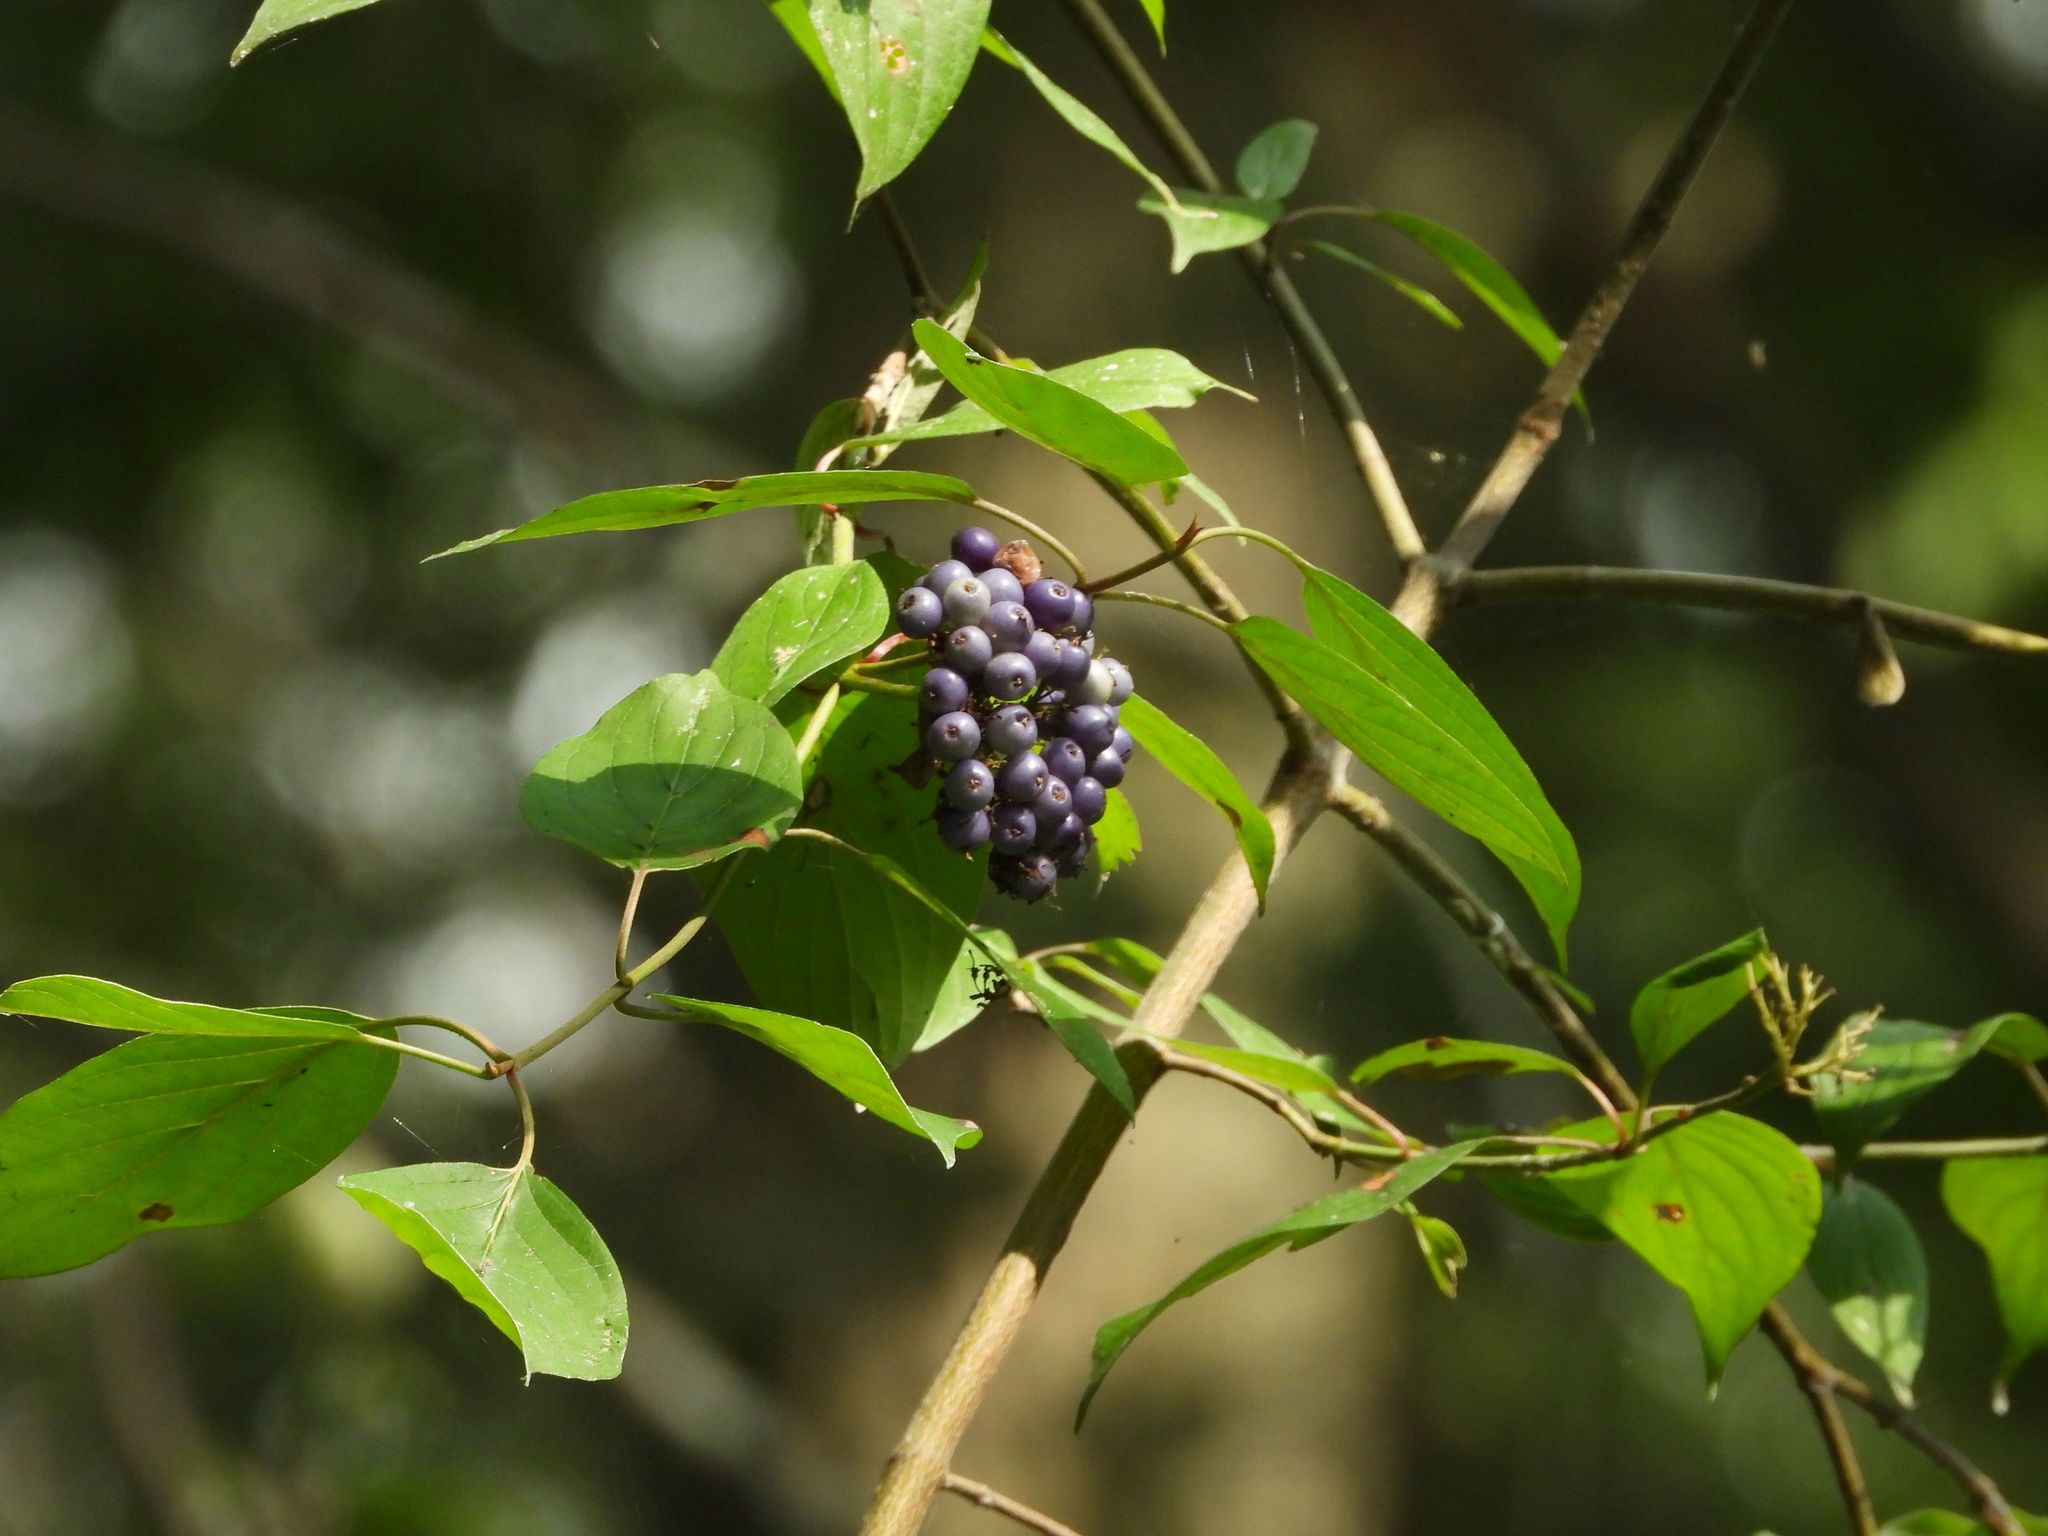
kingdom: Plantae
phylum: Tracheophyta
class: Magnoliopsida
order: Cornales
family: Cornaceae
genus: Cornus
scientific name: Cornus amomum
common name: Silky dogwood
